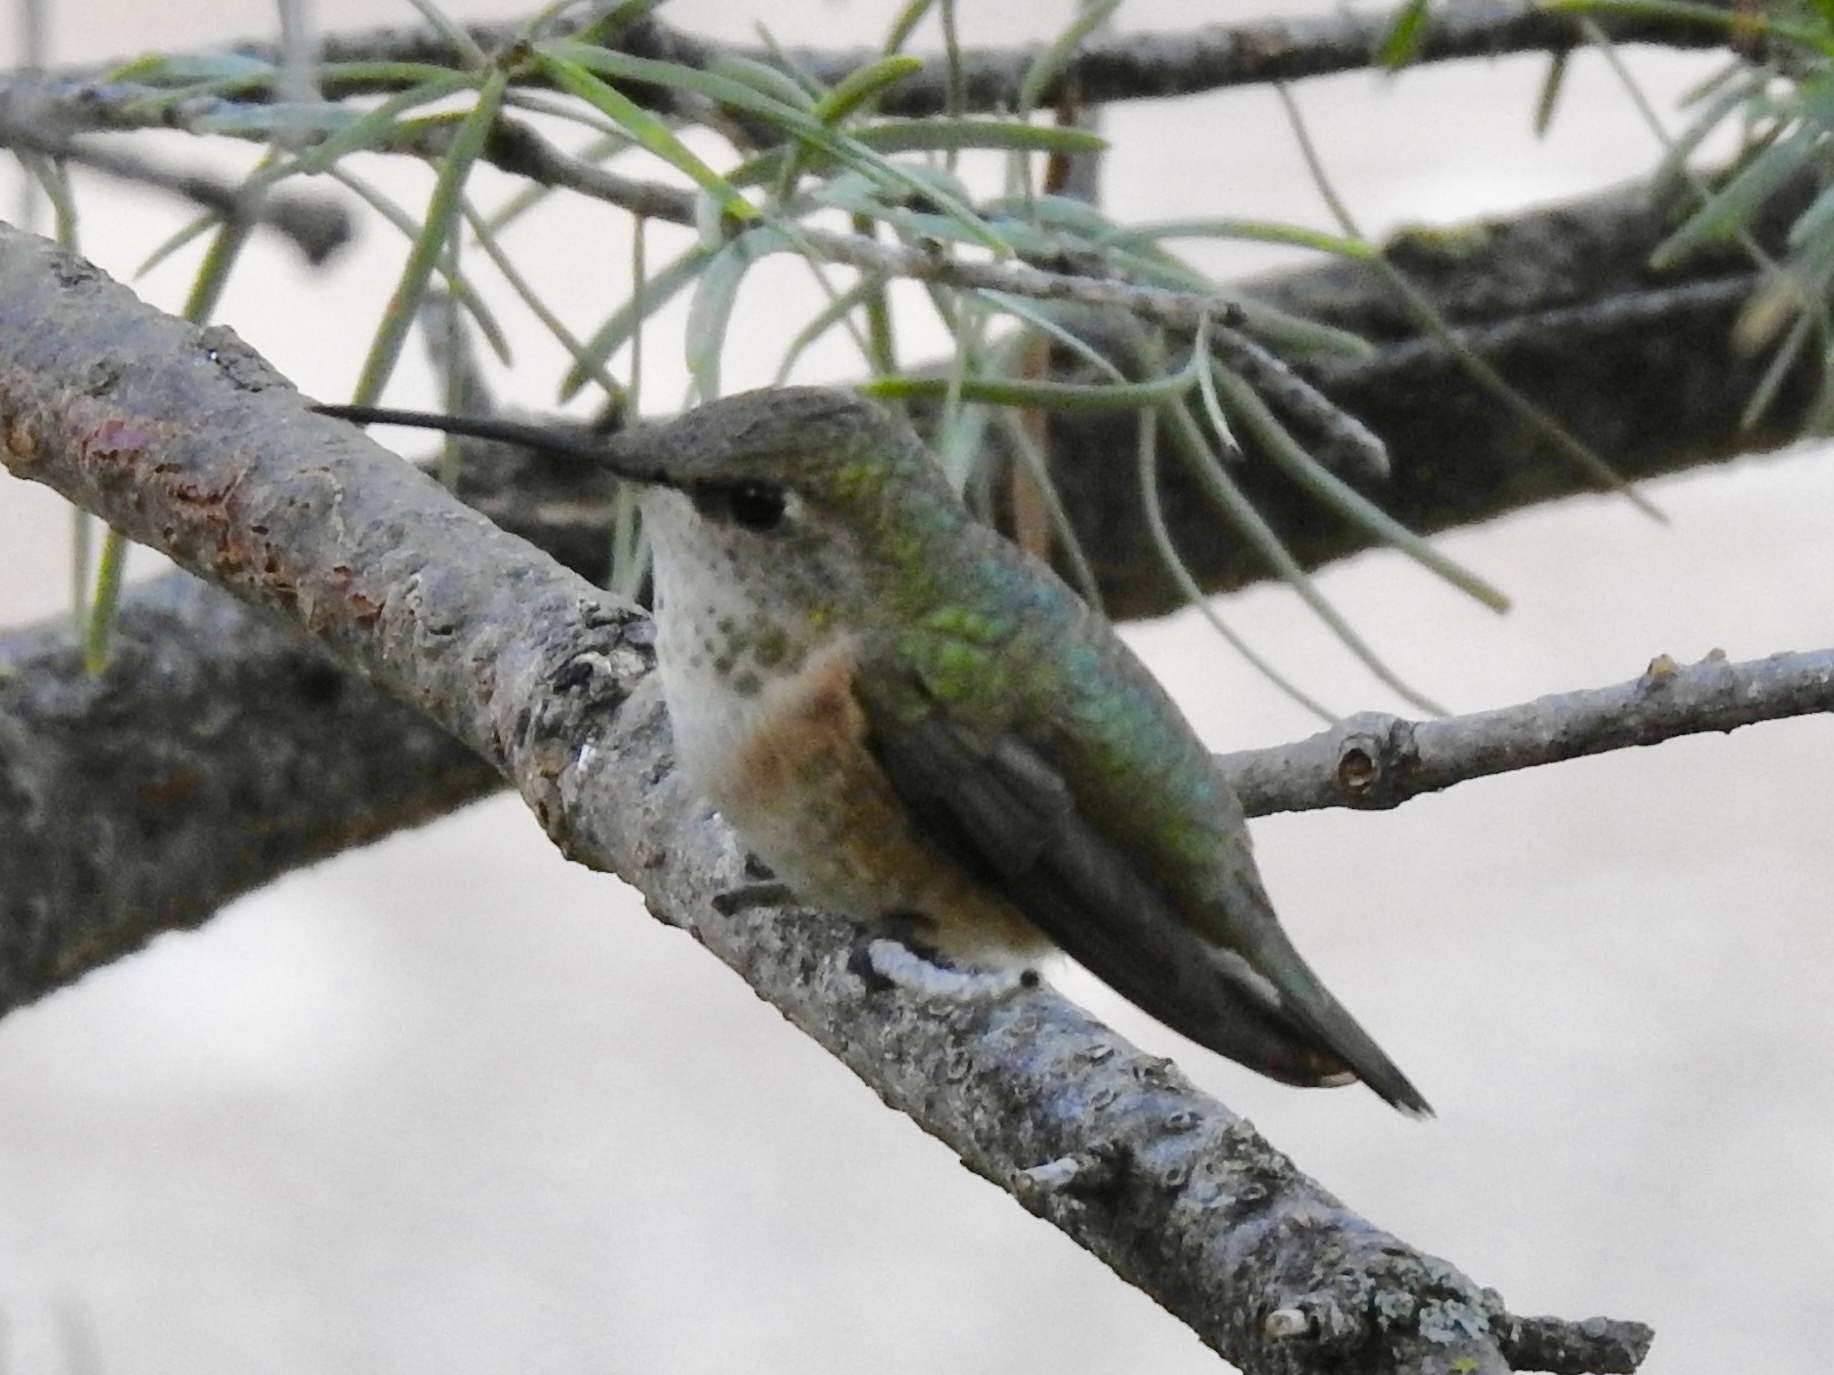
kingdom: Animalia
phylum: Chordata
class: Aves
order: Apodiformes
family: Trochilidae
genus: Selasphorus
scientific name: Selasphorus rufus
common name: Rufous hummingbird
